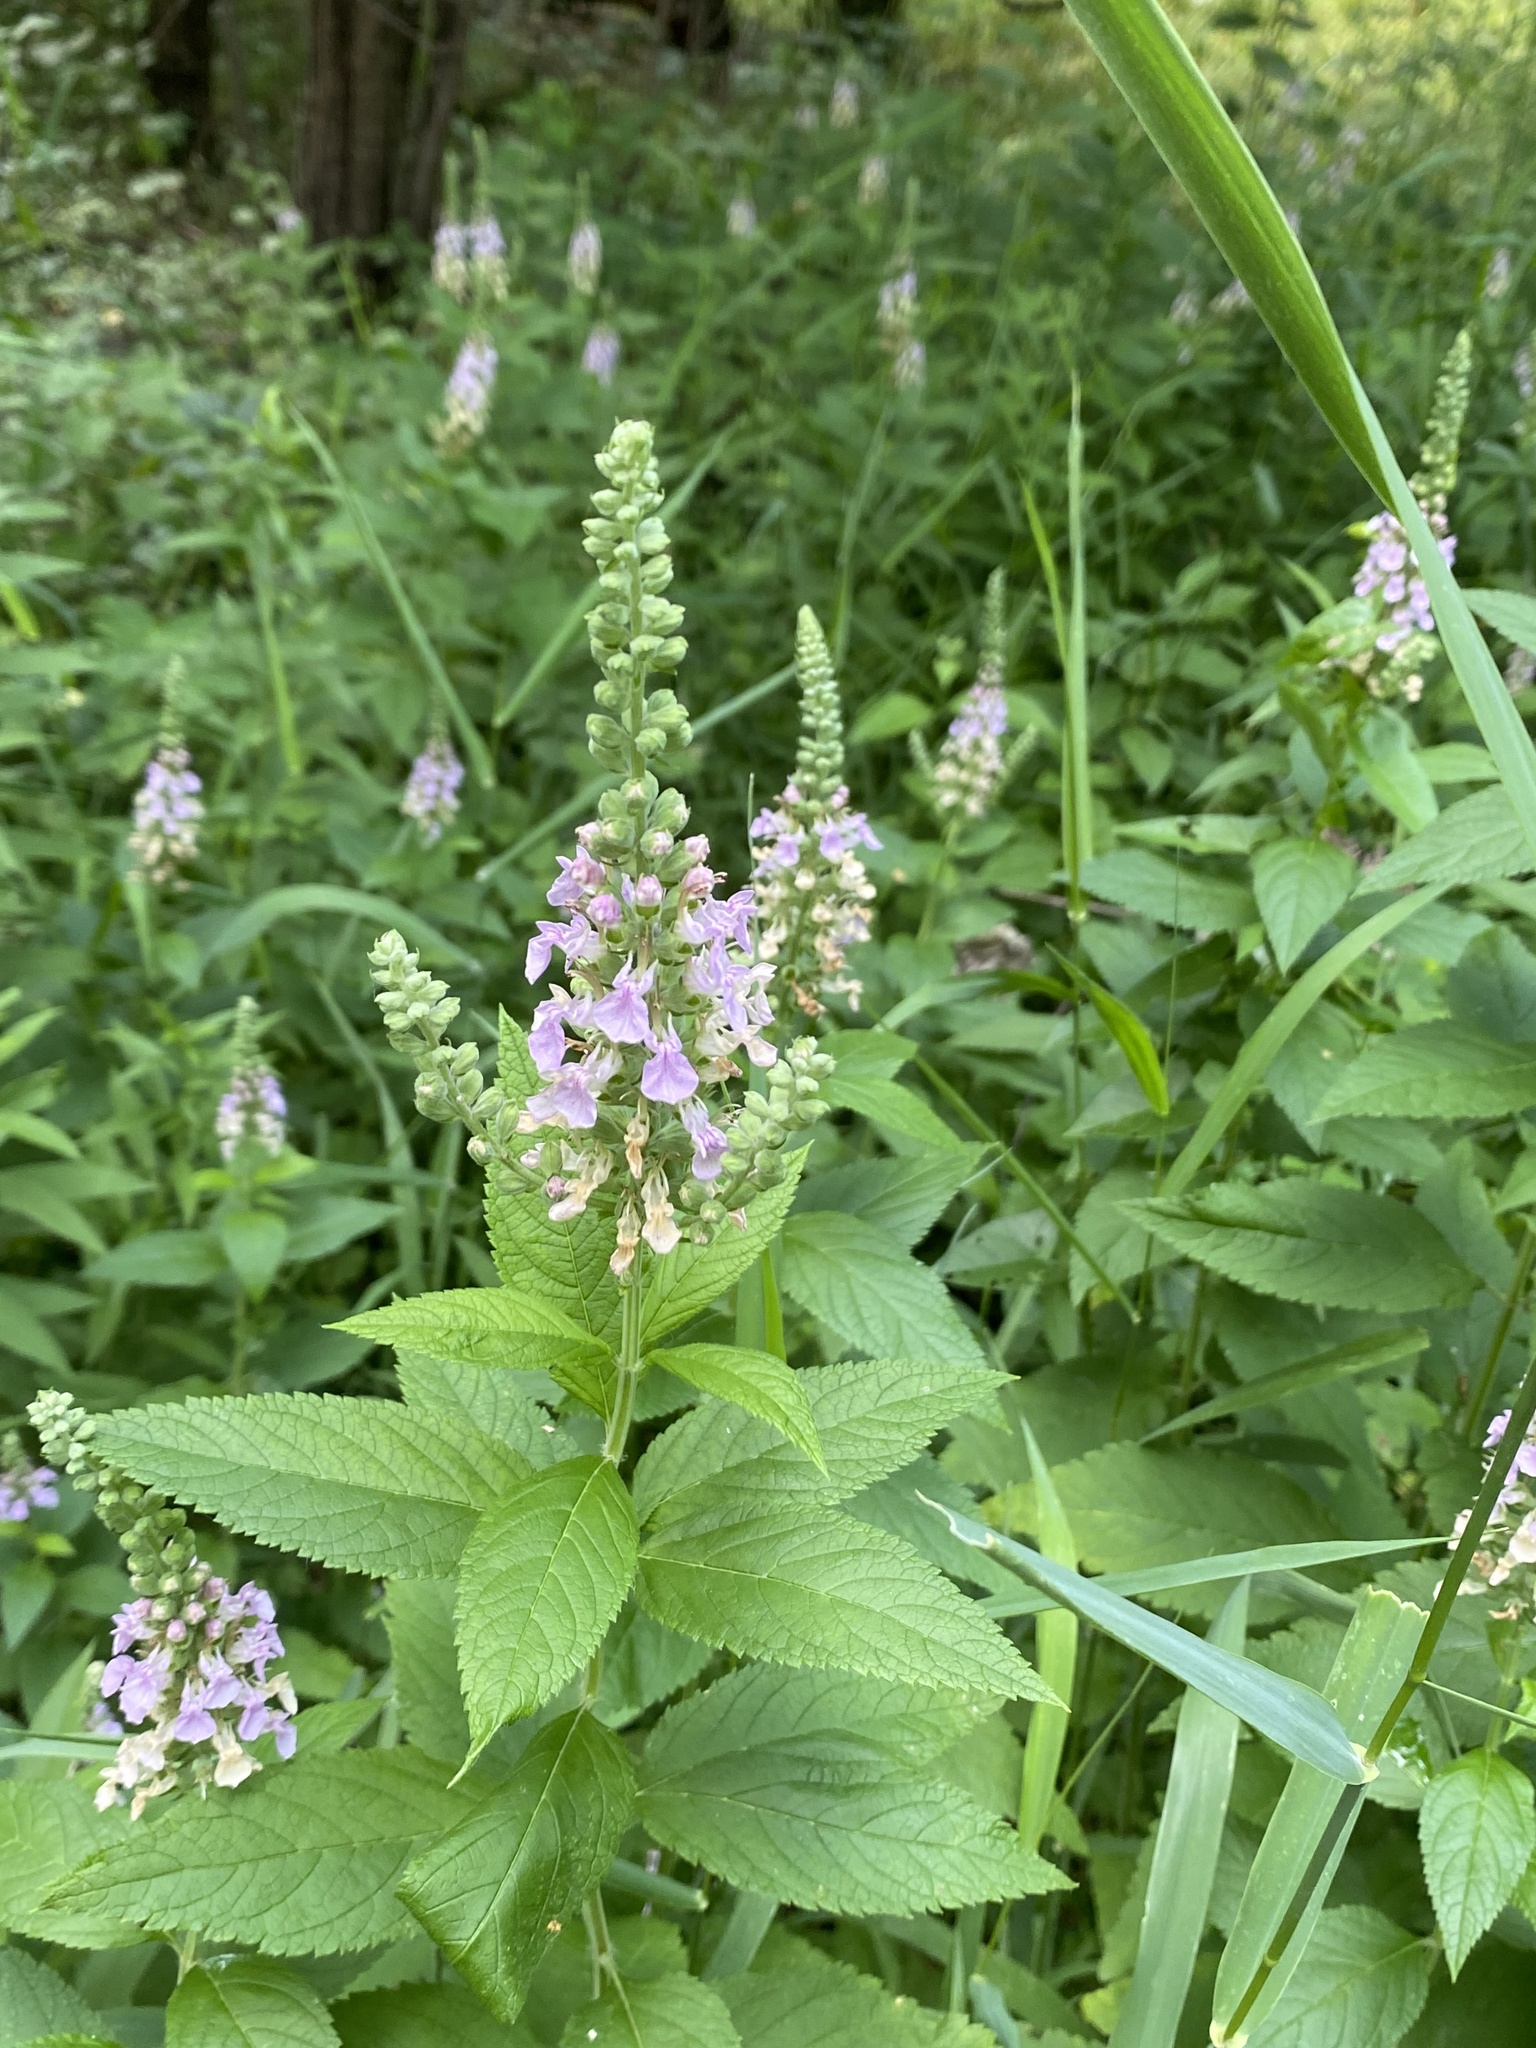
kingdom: Plantae
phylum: Tracheophyta
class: Magnoliopsida
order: Lamiales
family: Lamiaceae
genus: Teucrium
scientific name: Teucrium canadense
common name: American germander
